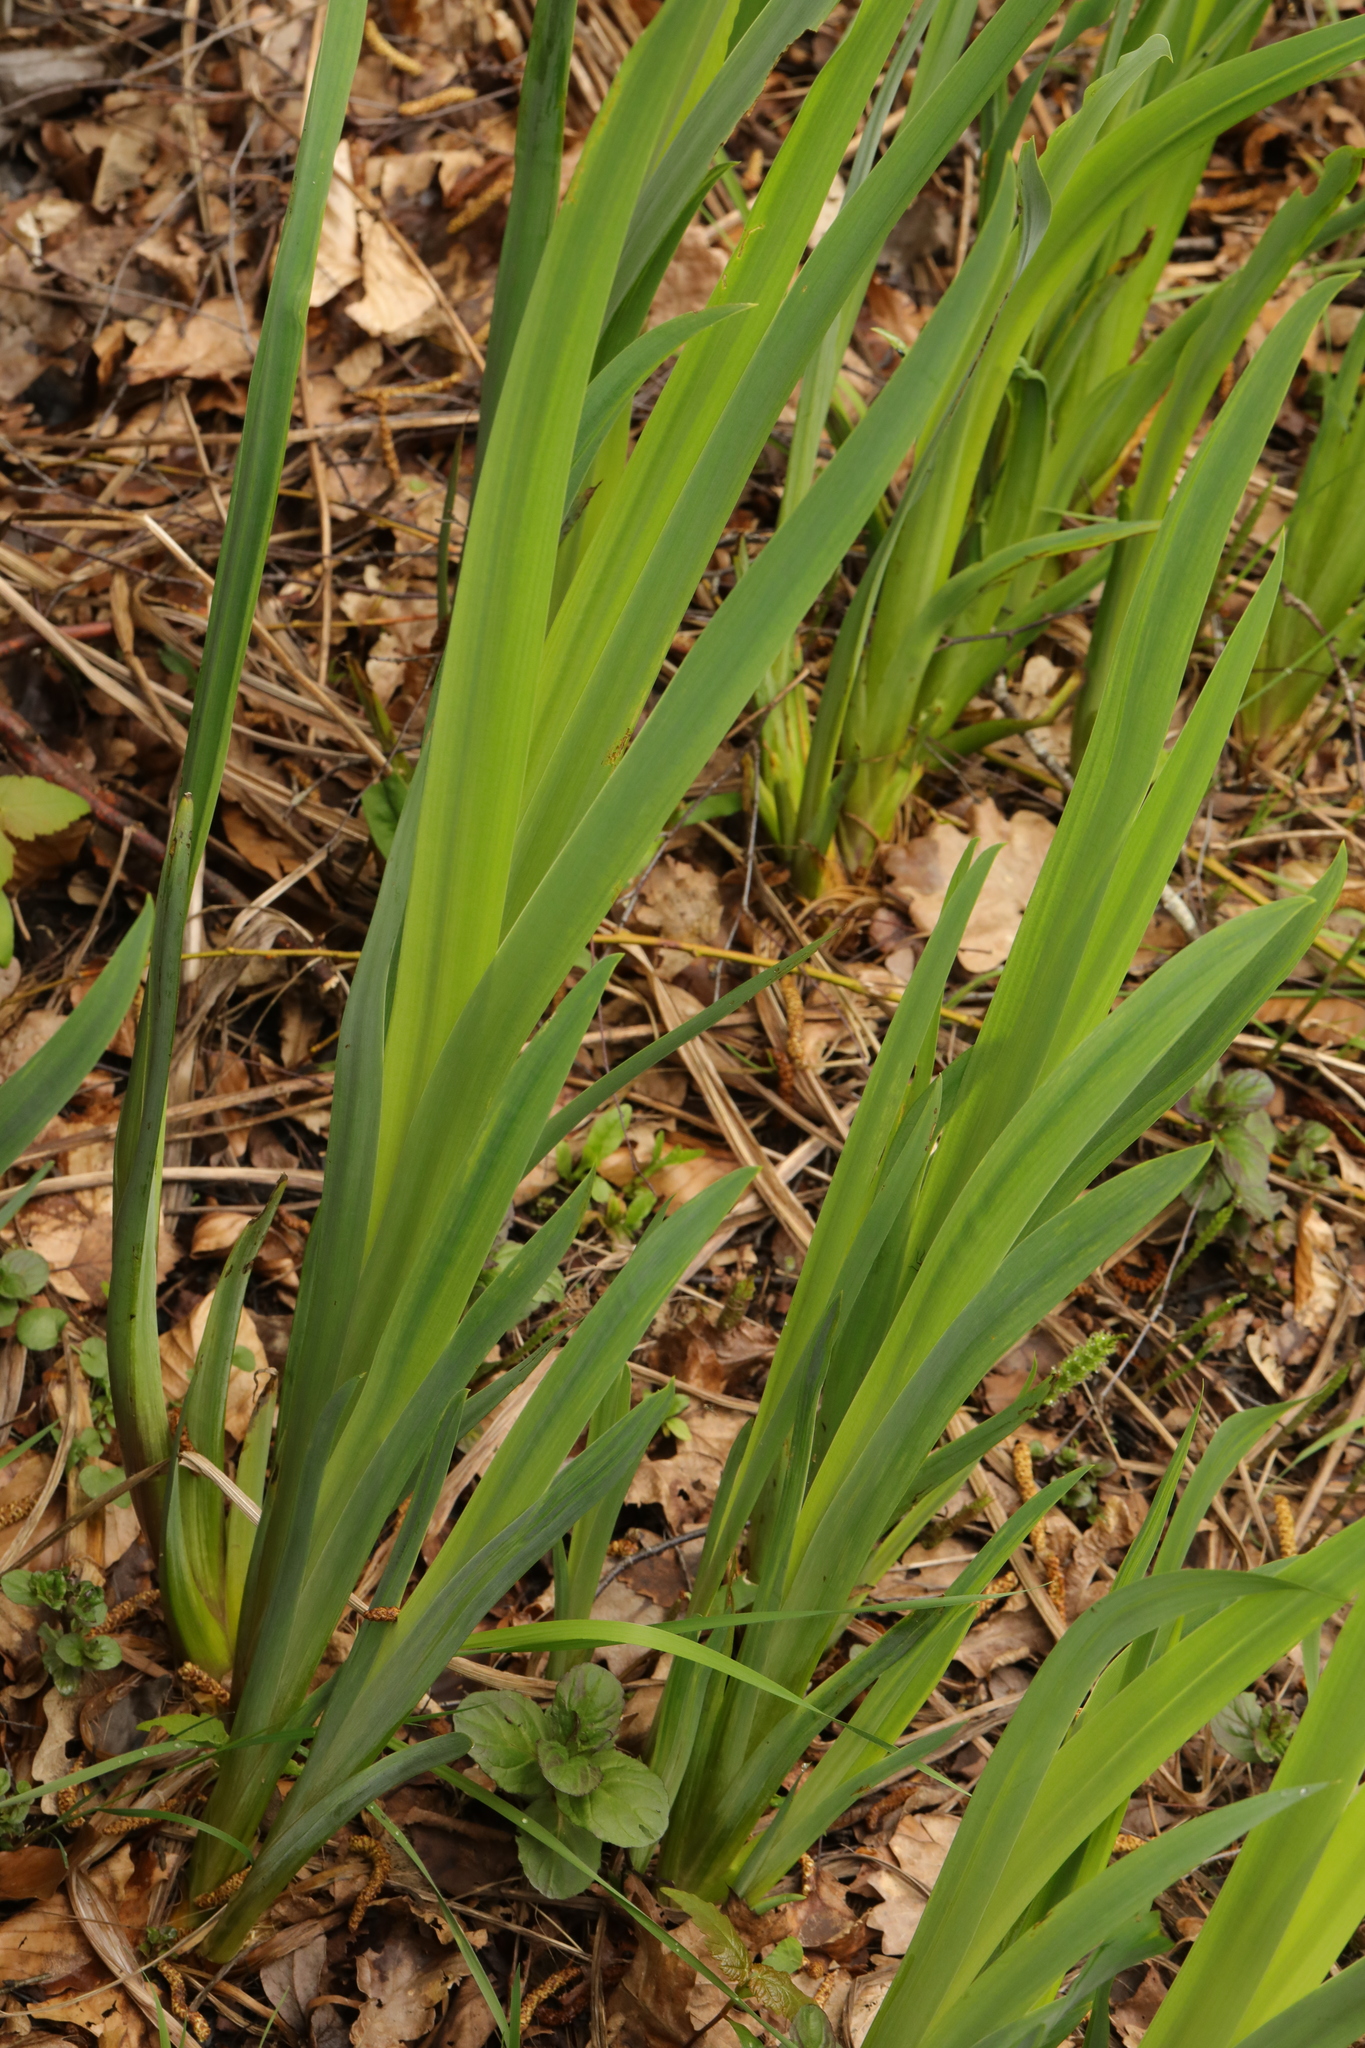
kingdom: Plantae
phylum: Tracheophyta
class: Liliopsida
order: Asparagales
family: Iridaceae
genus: Iris
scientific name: Iris pseudacorus
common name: Yellow flag
